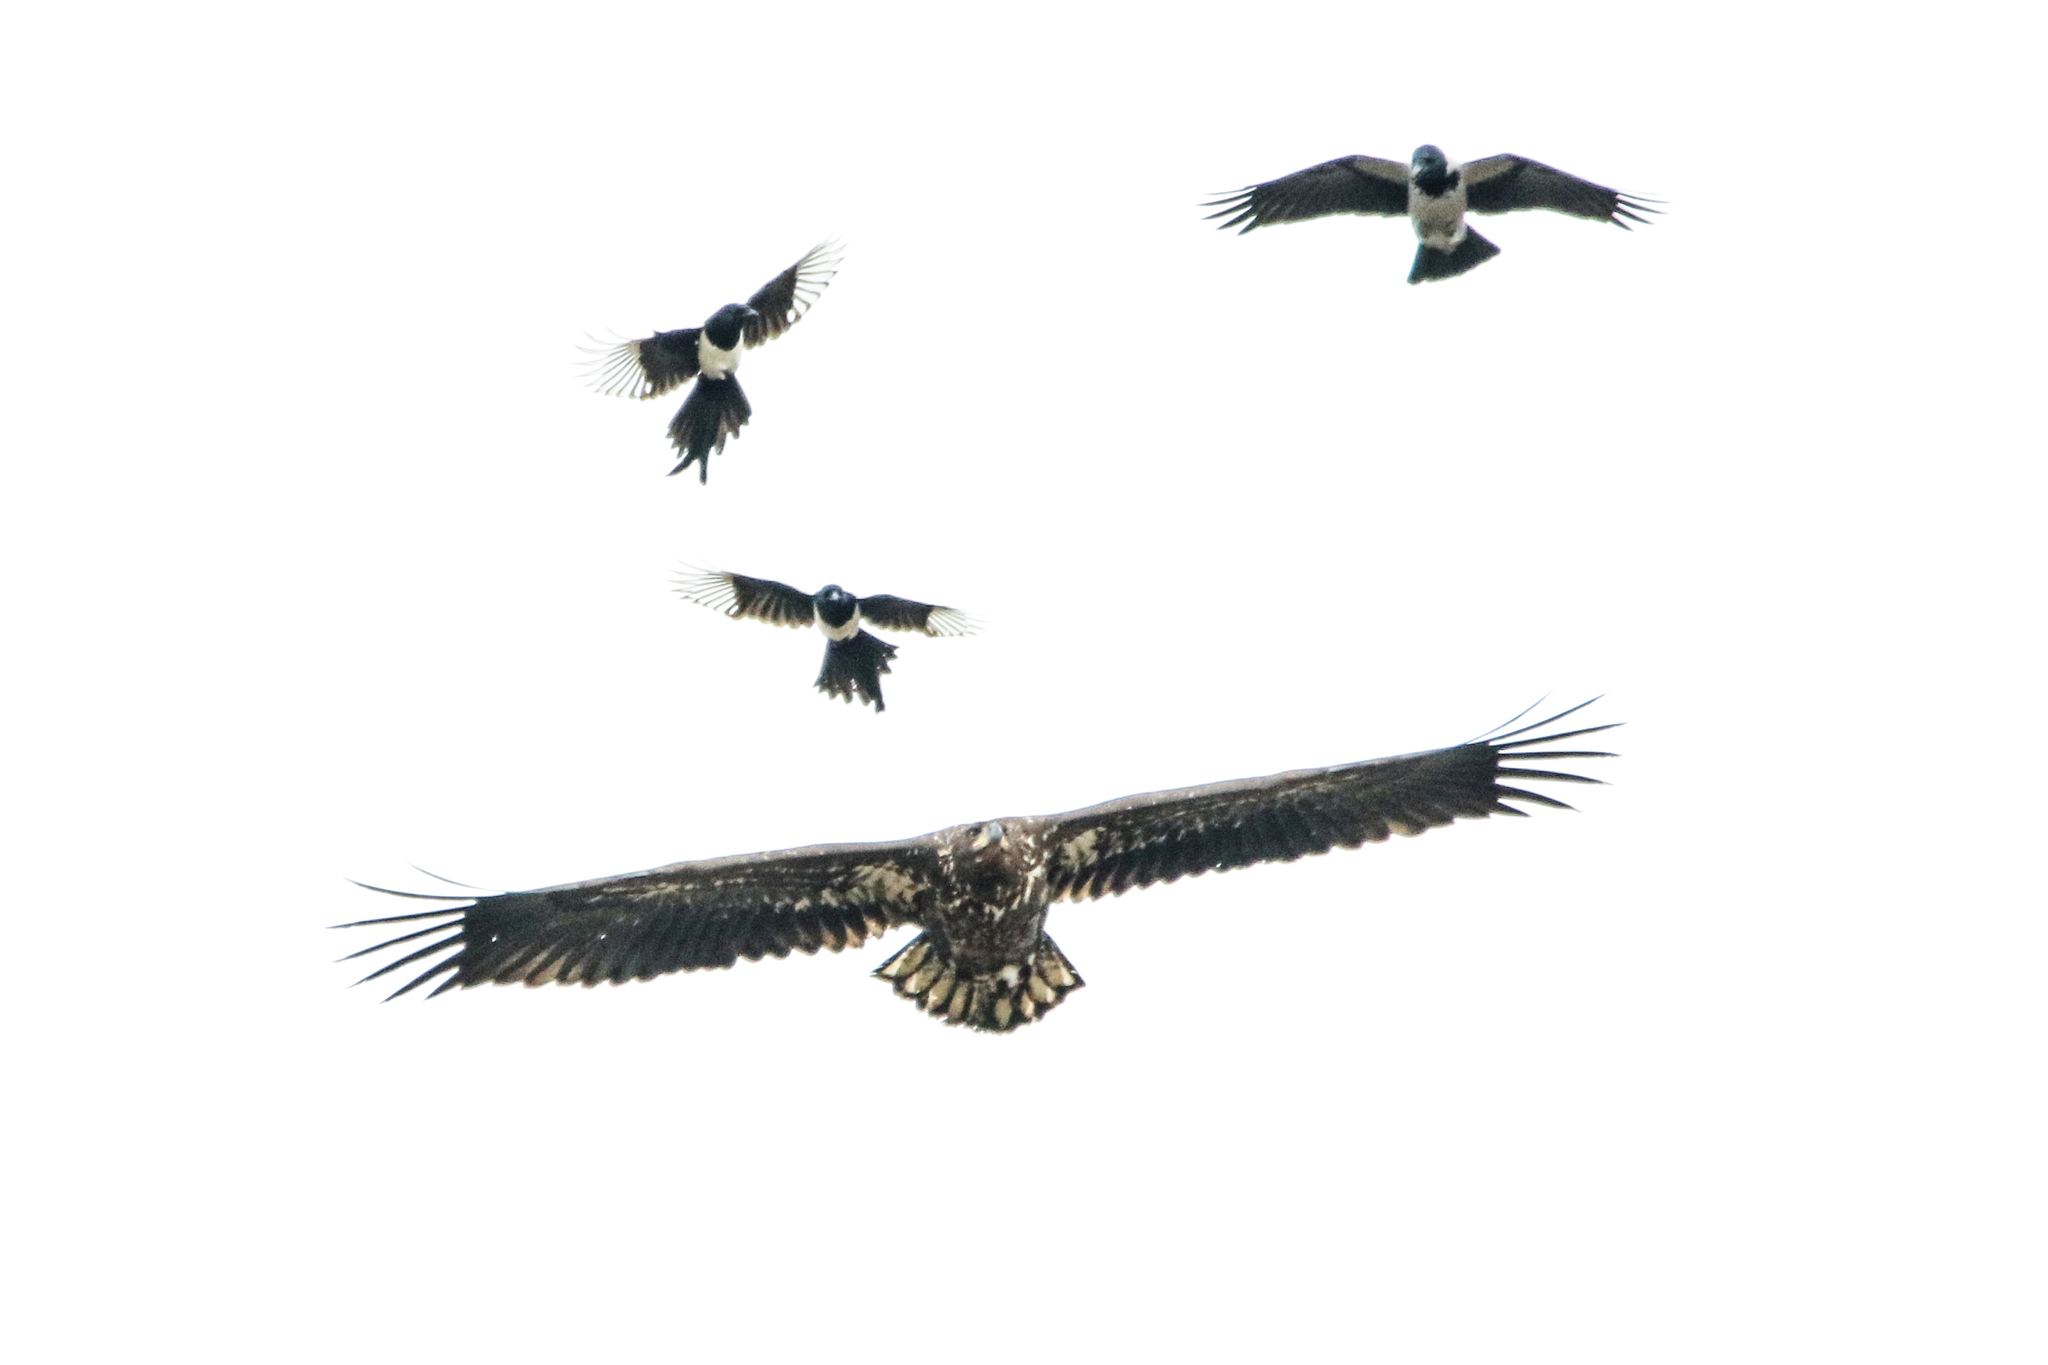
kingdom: Animalia
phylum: Chordata
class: Aves
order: Accipitriformes
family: Accipitridae
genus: Haliaeetus
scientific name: Haliaeetus albicilla
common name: White-tailed eagle
